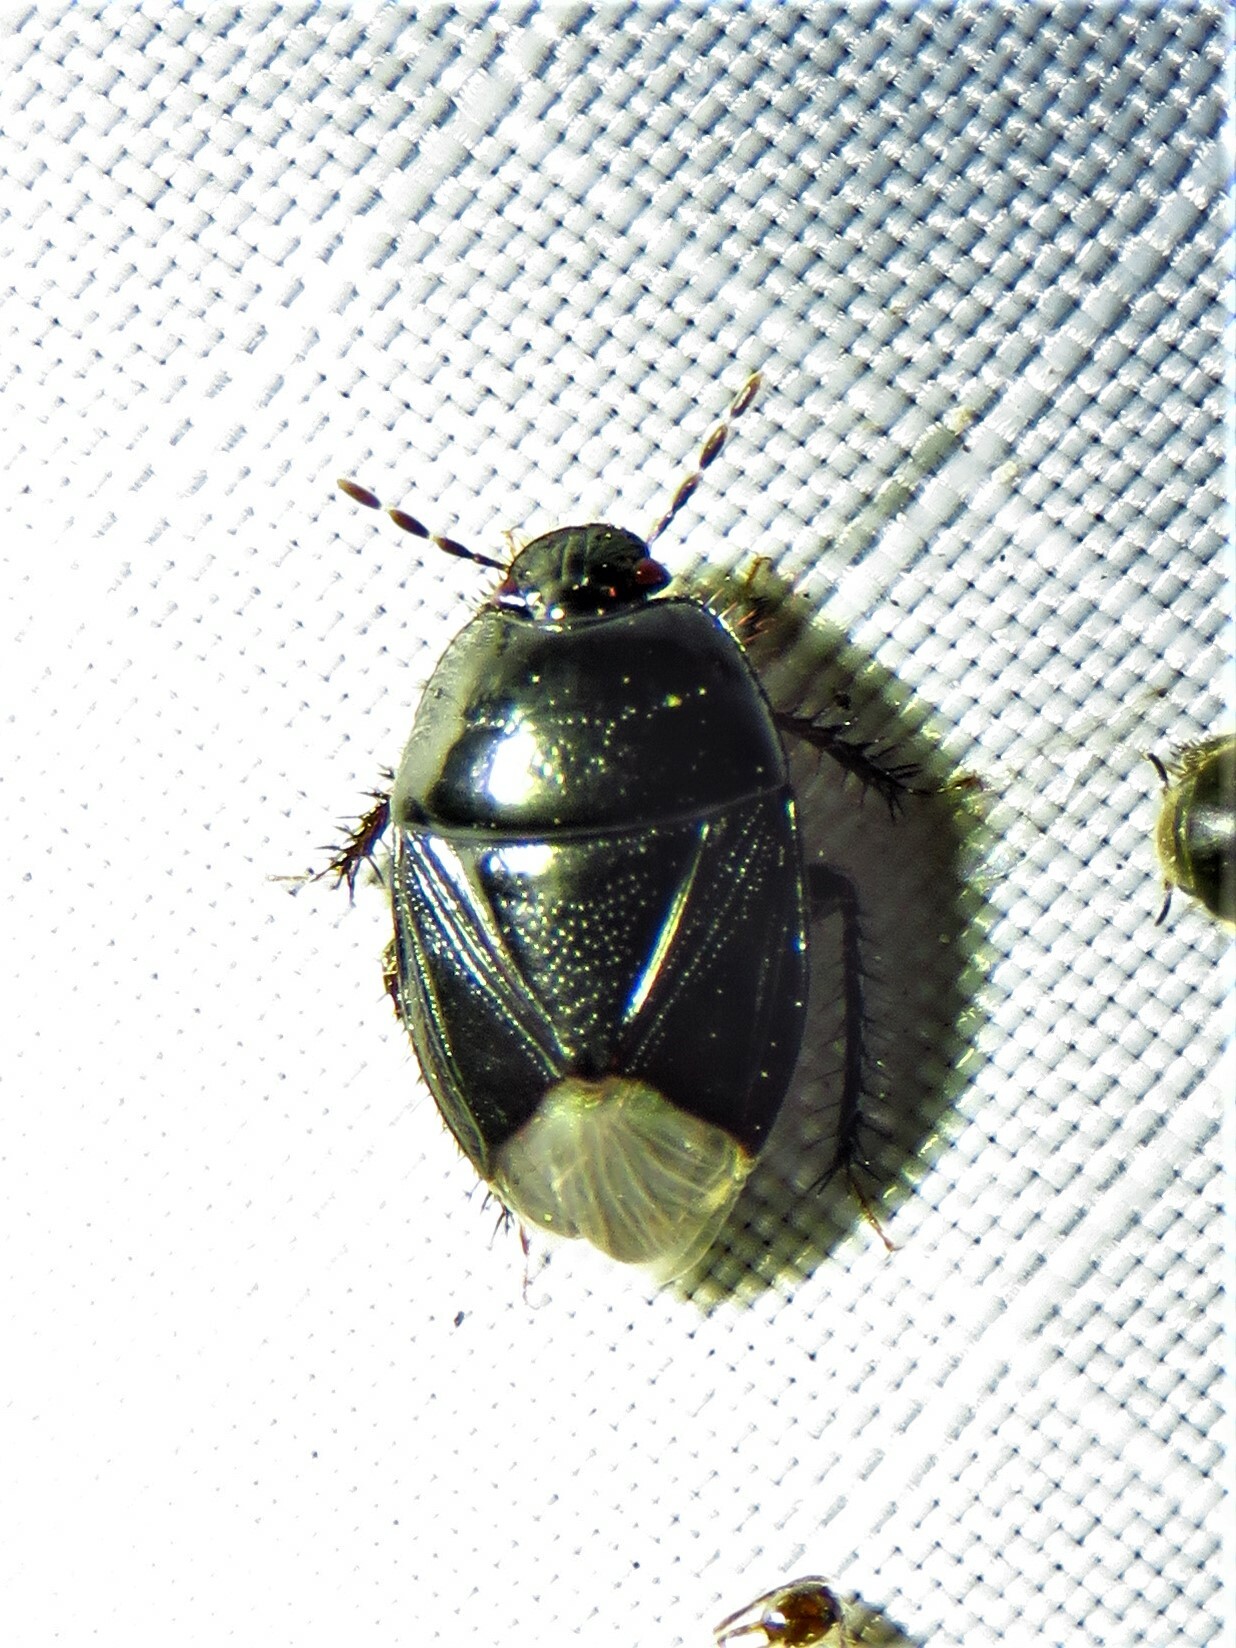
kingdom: Animalia
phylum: Arthropoda
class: Insecta
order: Hemiptera
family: Cydnidae
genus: Pangaeus
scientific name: Pangaeus bilineatus
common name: Burrower bug
